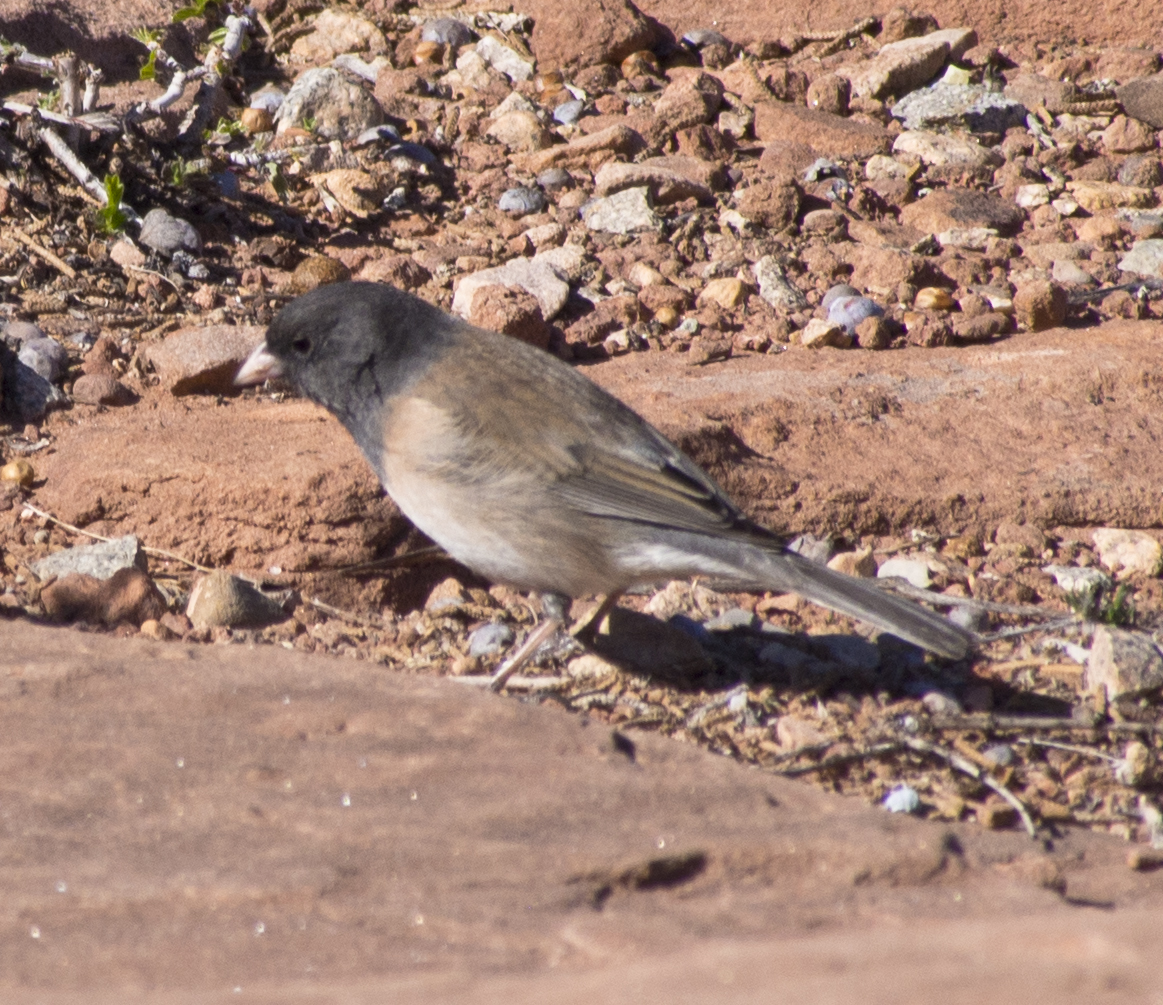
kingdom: Animalia
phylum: Chordata
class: Aves
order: Passeriformes
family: Passerellidae
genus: Junco
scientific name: Junco hyemalis
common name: Dark-eyed junco
